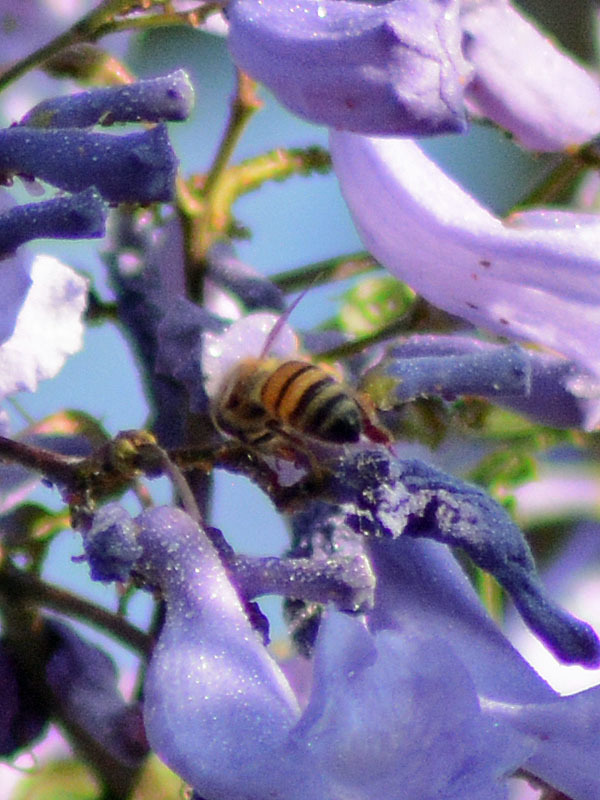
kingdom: Animalia
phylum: Arthropoda
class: Insecta
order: Hymenoptera
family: Apidae
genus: Apis
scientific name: Apis mellifera
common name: Honey bee
